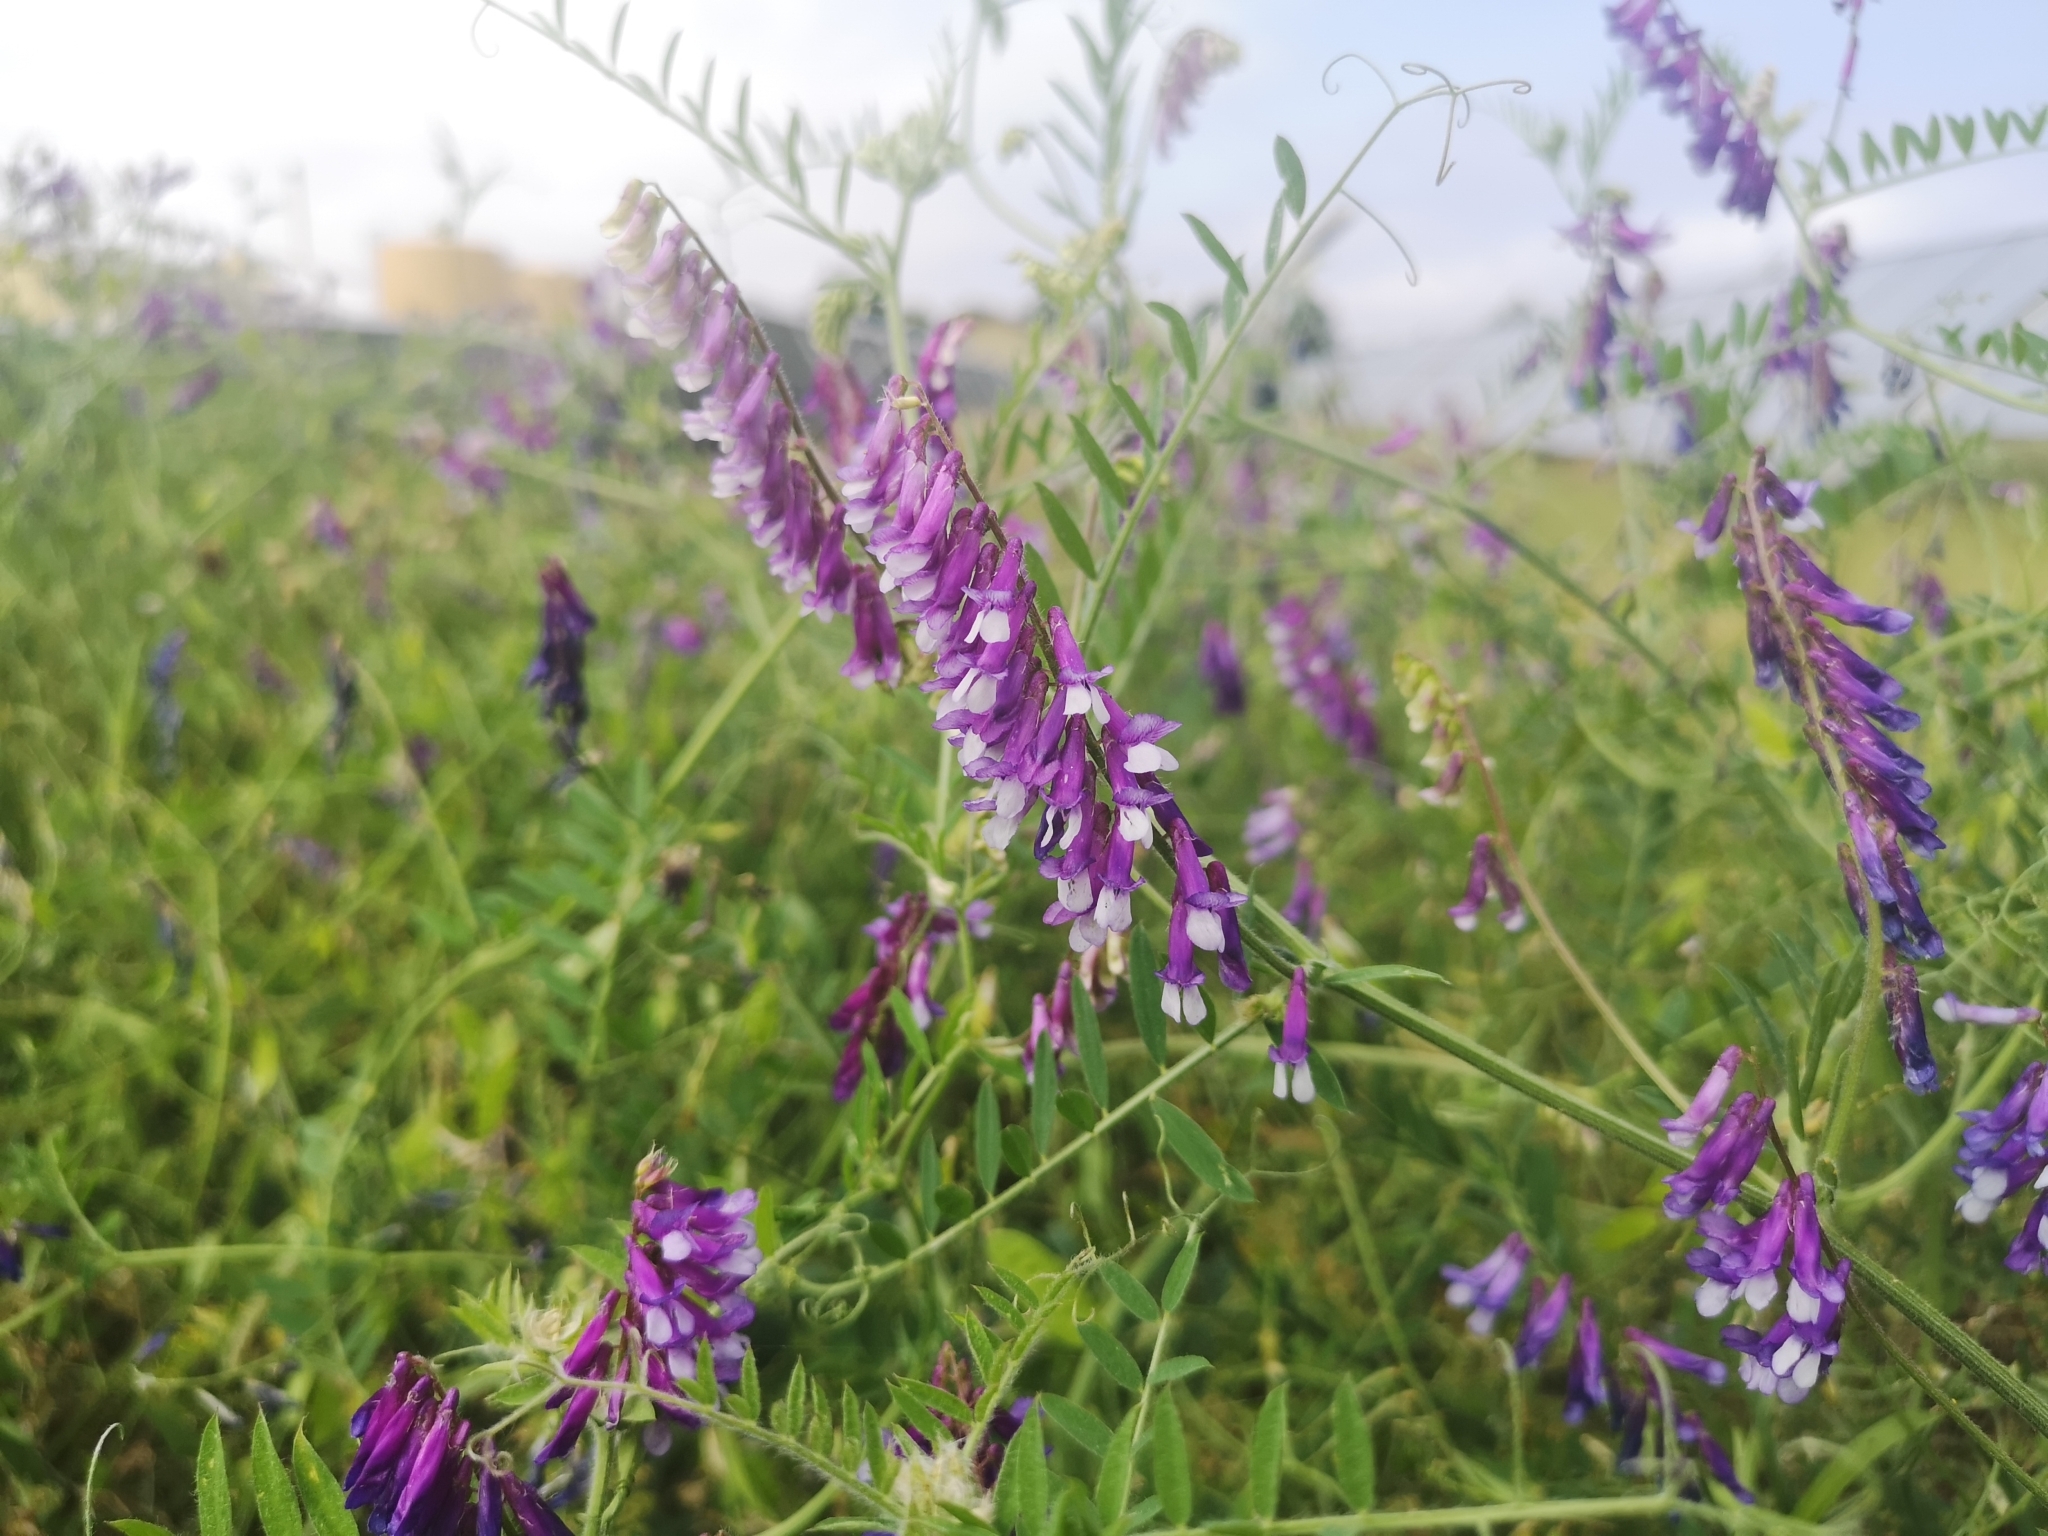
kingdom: Plantae
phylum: Tracheophyta
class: Magnoliopsida
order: Fabales
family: Fabaceae
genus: Vicia
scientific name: Vicia villosa
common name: Fodder vetch
